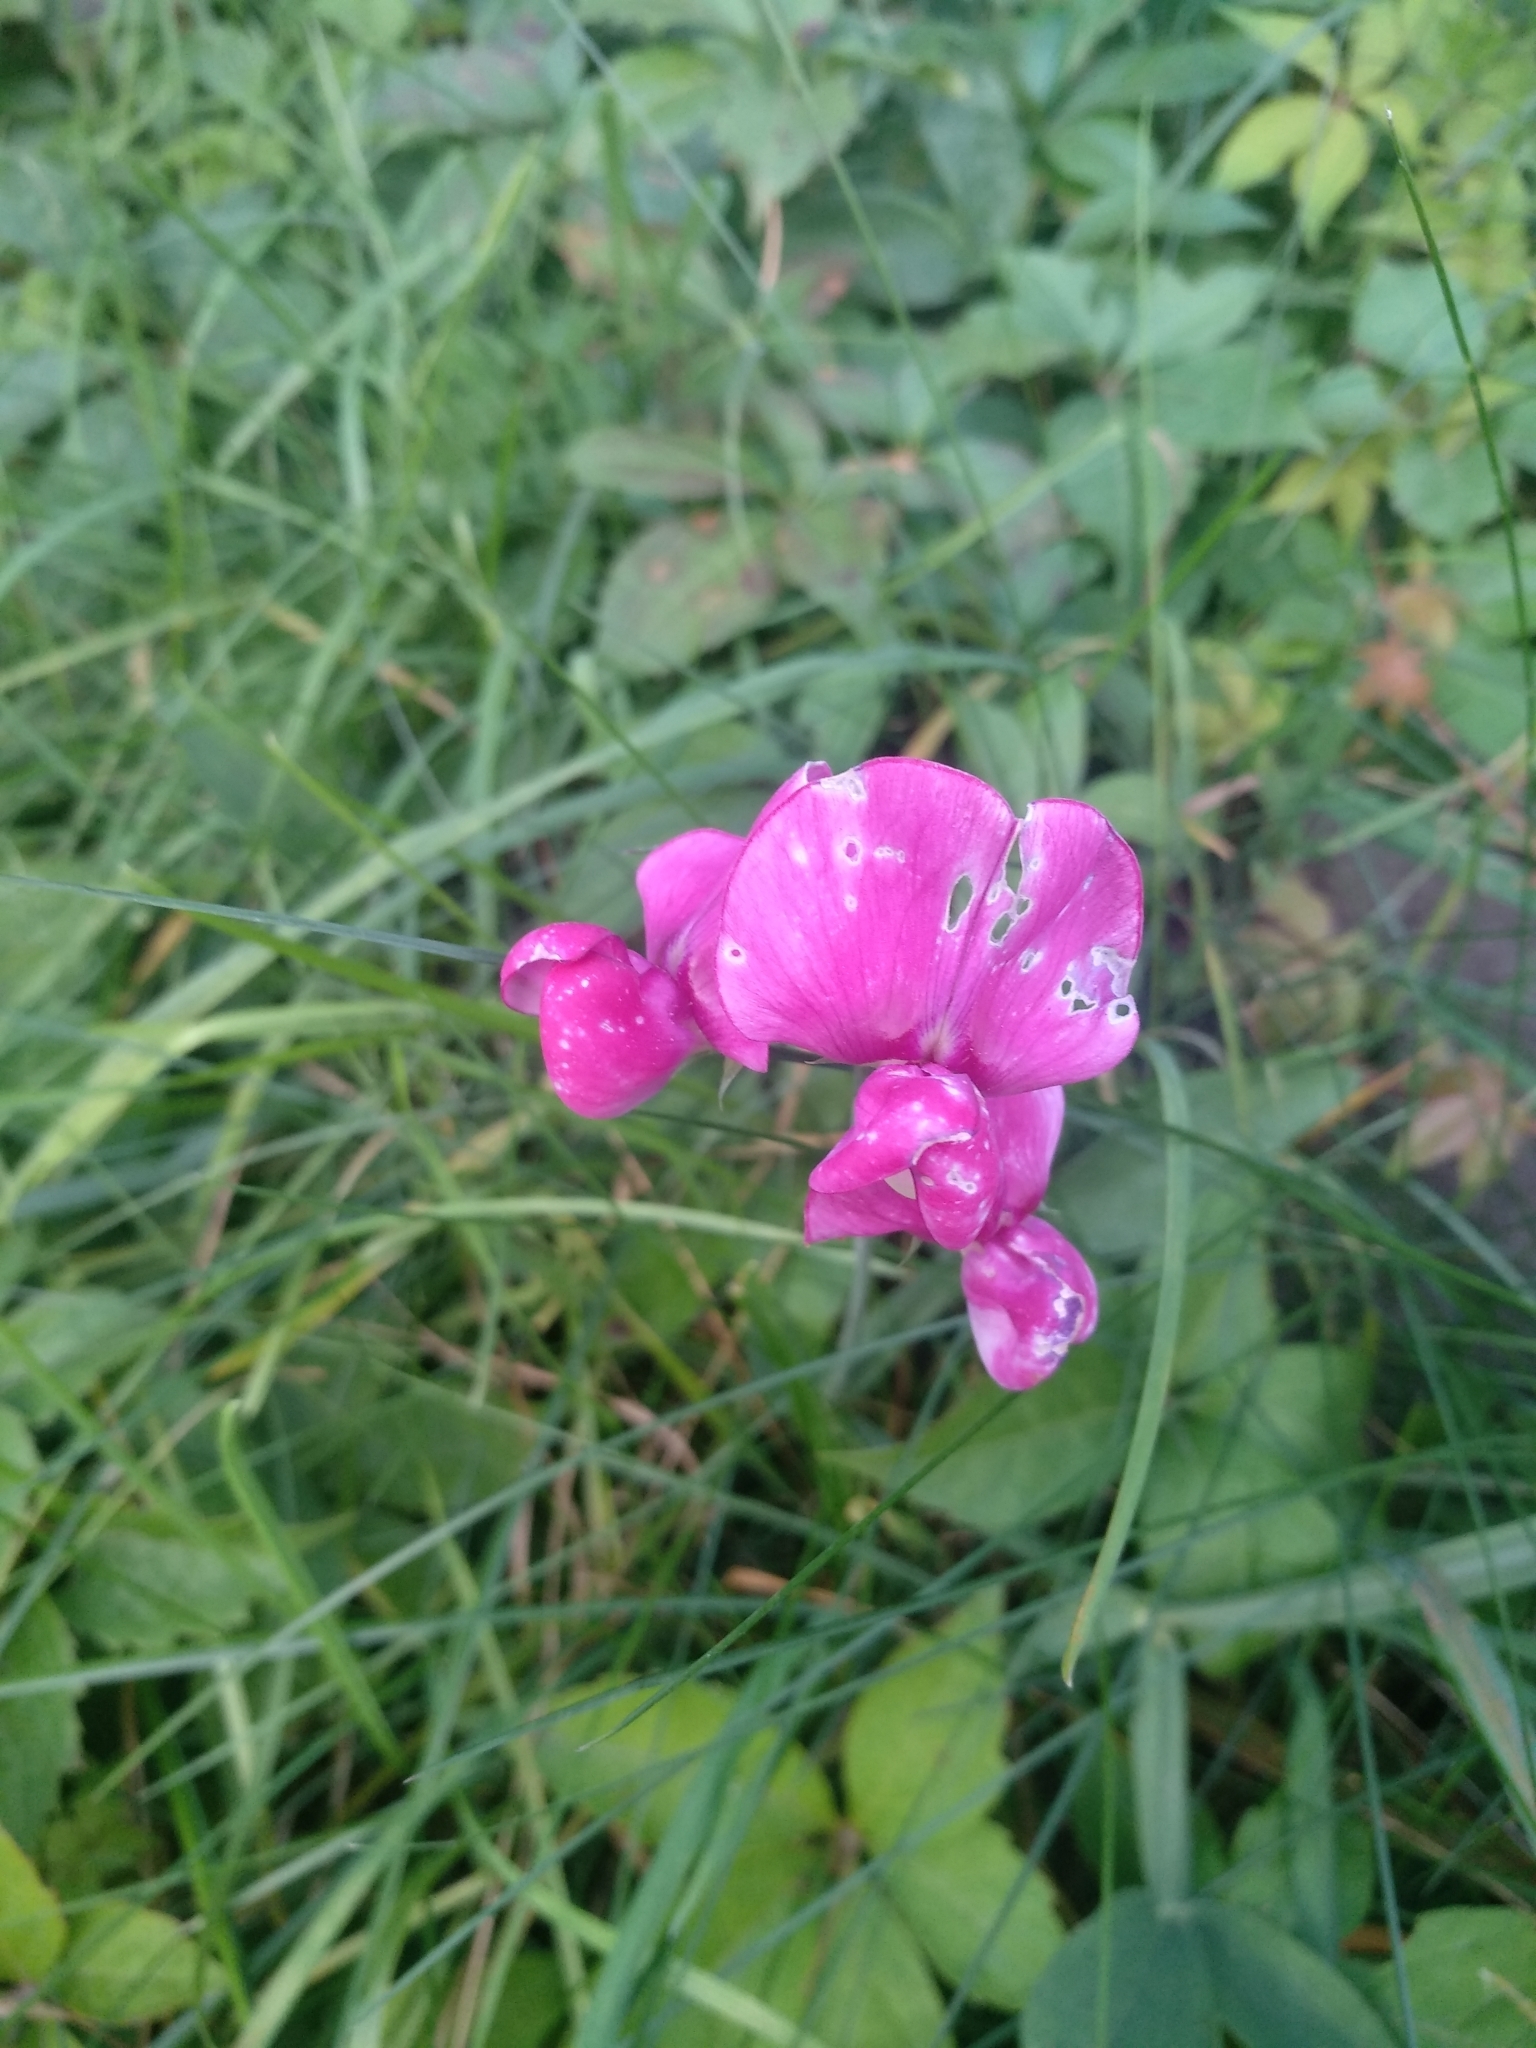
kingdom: Plantae
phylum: Tracheophyta
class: Magnoliopsida
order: Fabales
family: Fabaceae
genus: Lathyrus
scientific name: Lathyrus sylvestris
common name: Flat pea
